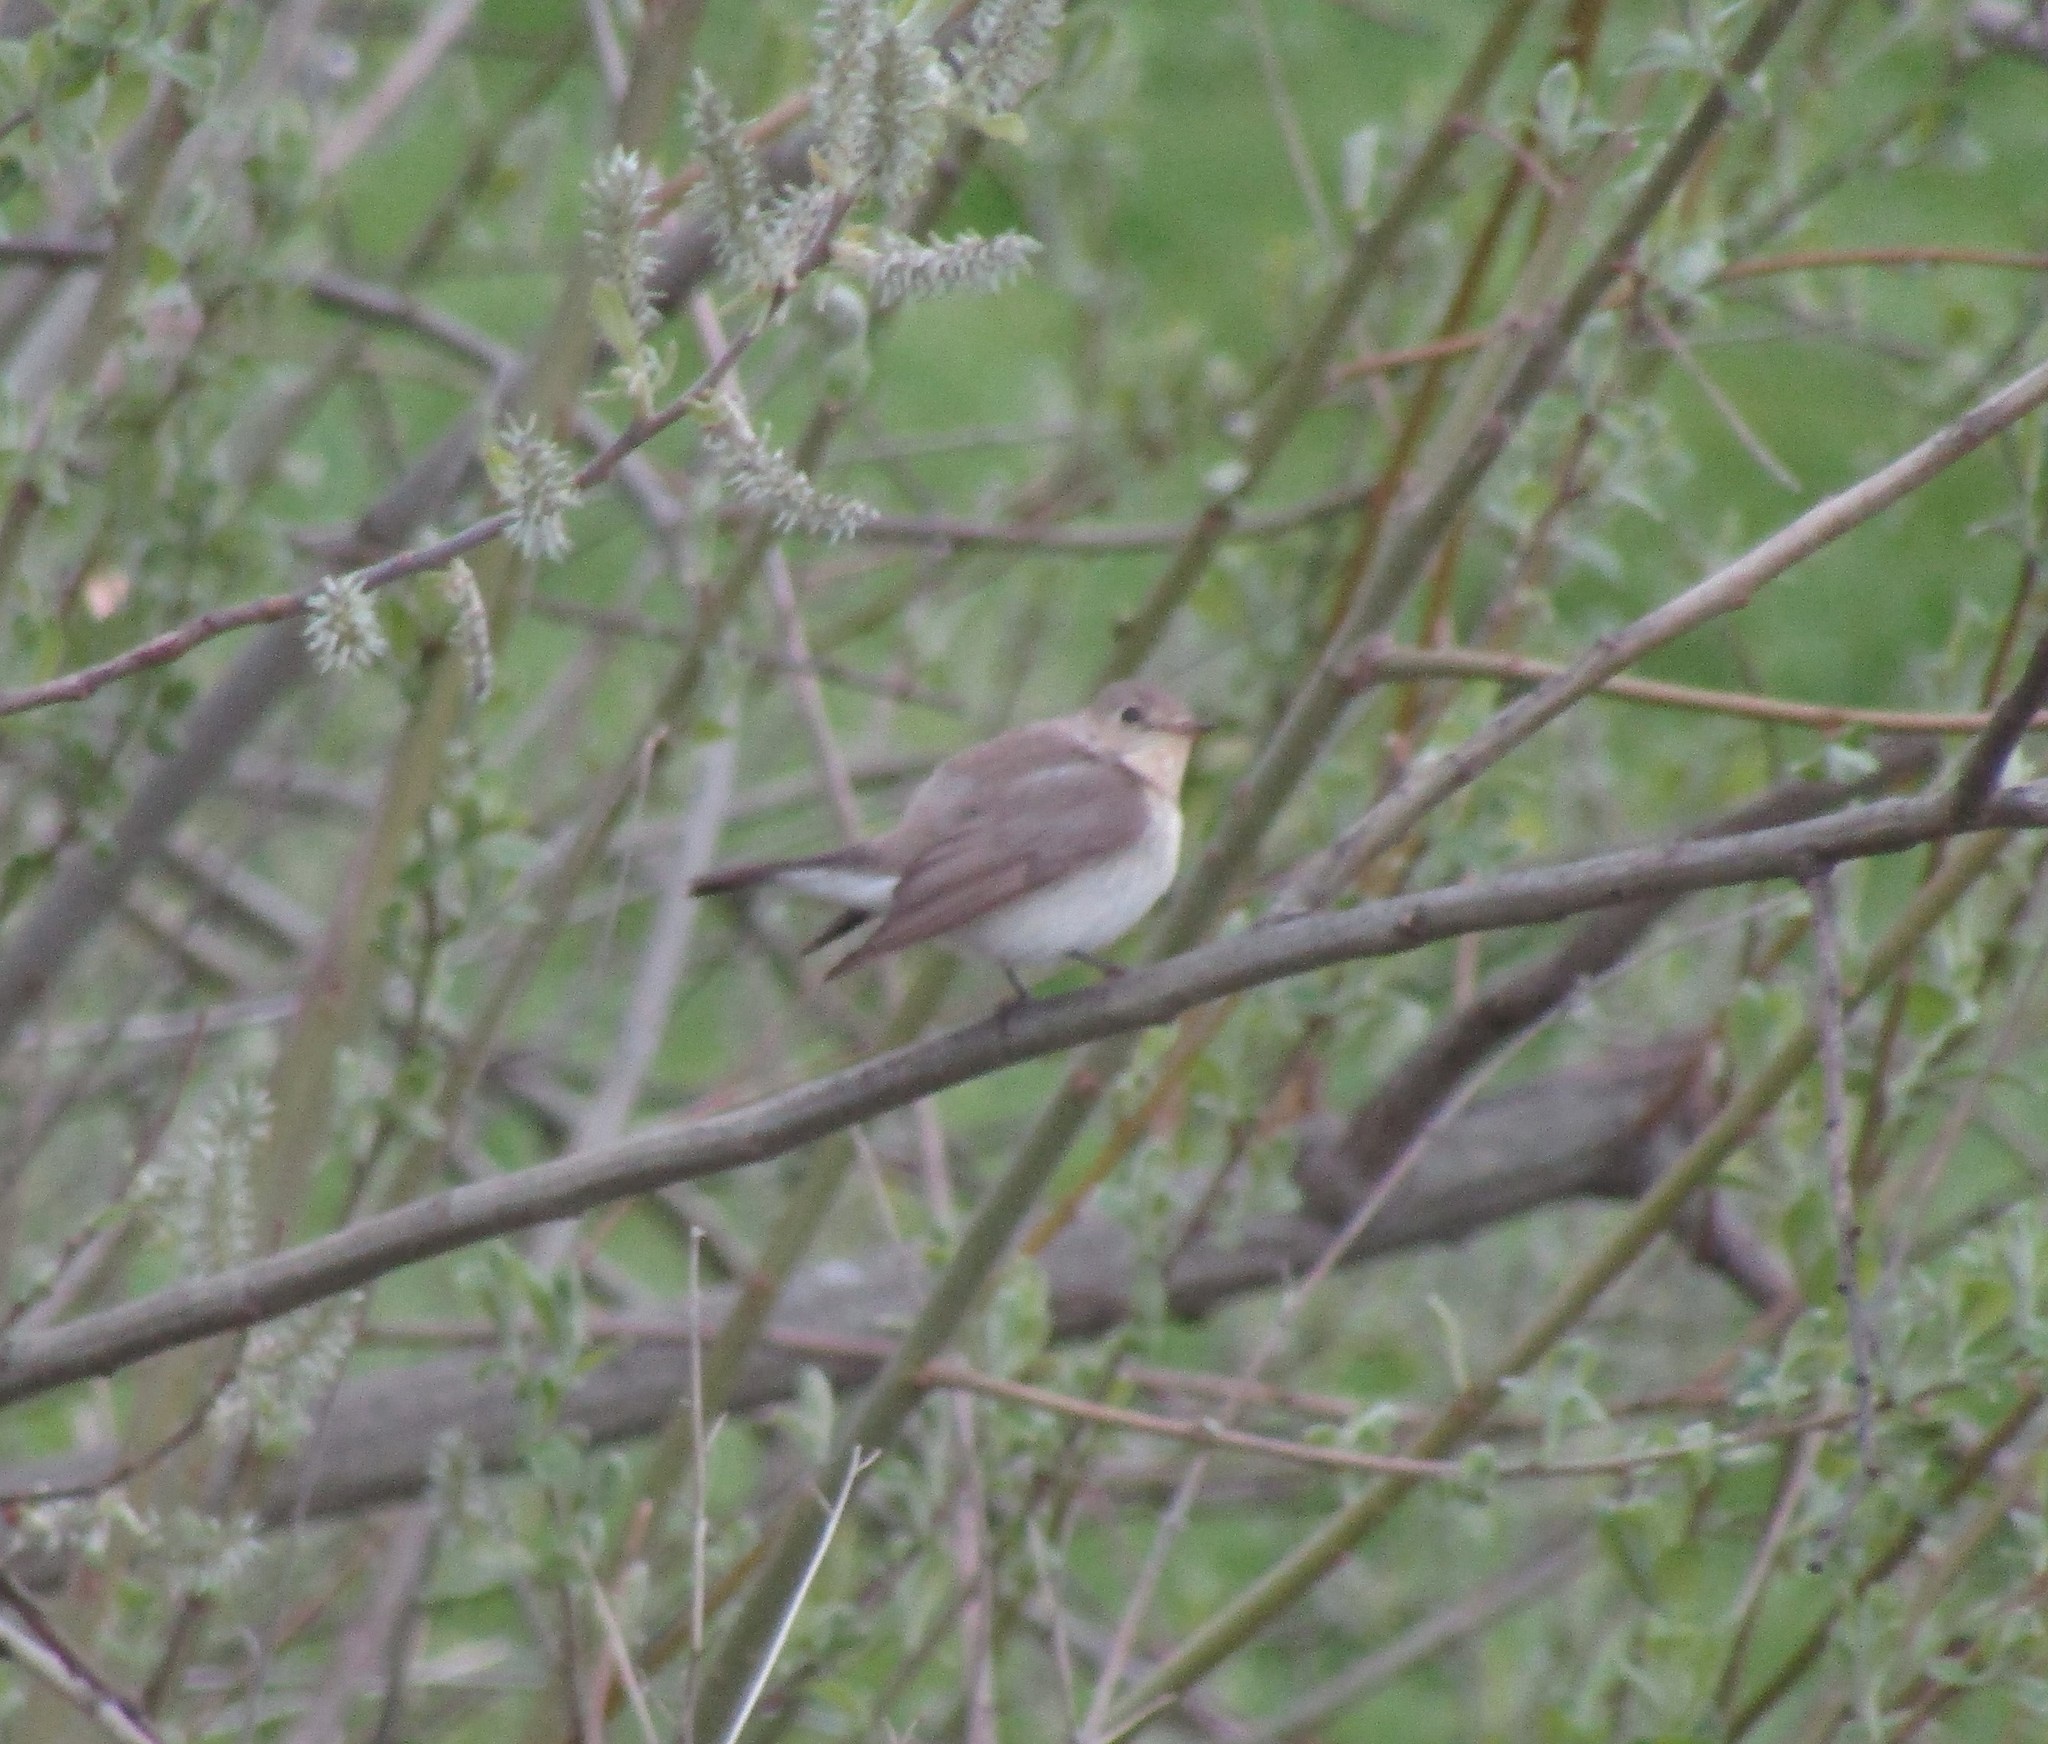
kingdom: Animalia
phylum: Chordata
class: Aves
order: Passeriformes
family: Muscicapidae
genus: Ficedula
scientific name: Ficedula parva
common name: Red-breasted flycatcher
